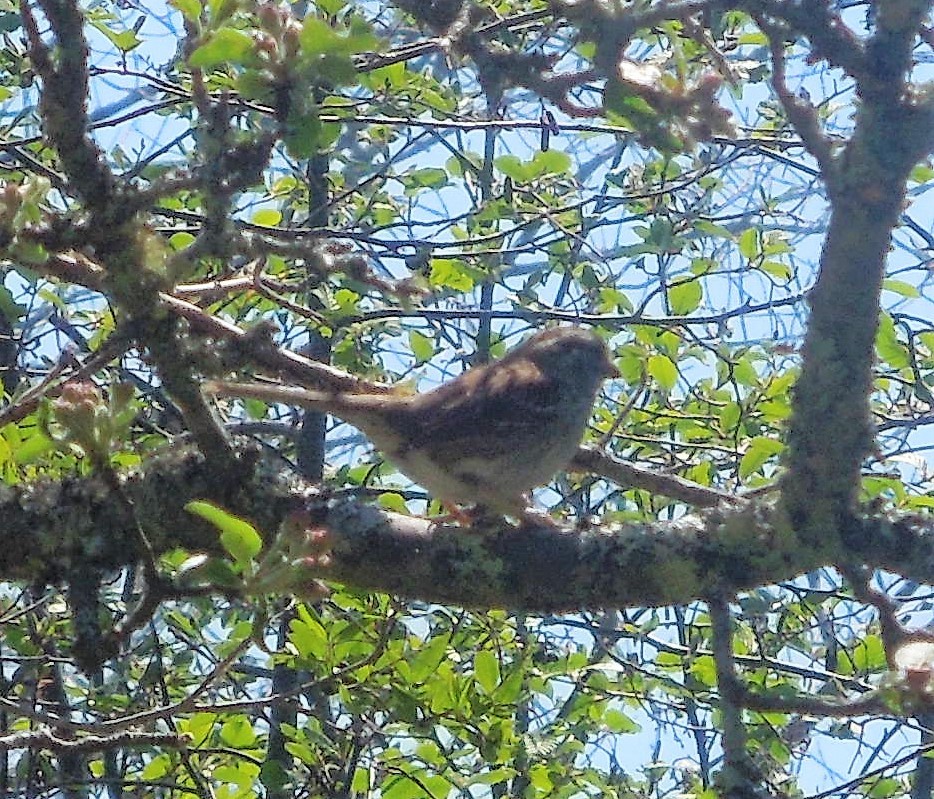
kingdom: Animalia
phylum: Chordata
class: Aves
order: Passeriformes
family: Passerellidae
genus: Melospiza
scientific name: Melospiza melodia
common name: Song sparrow
